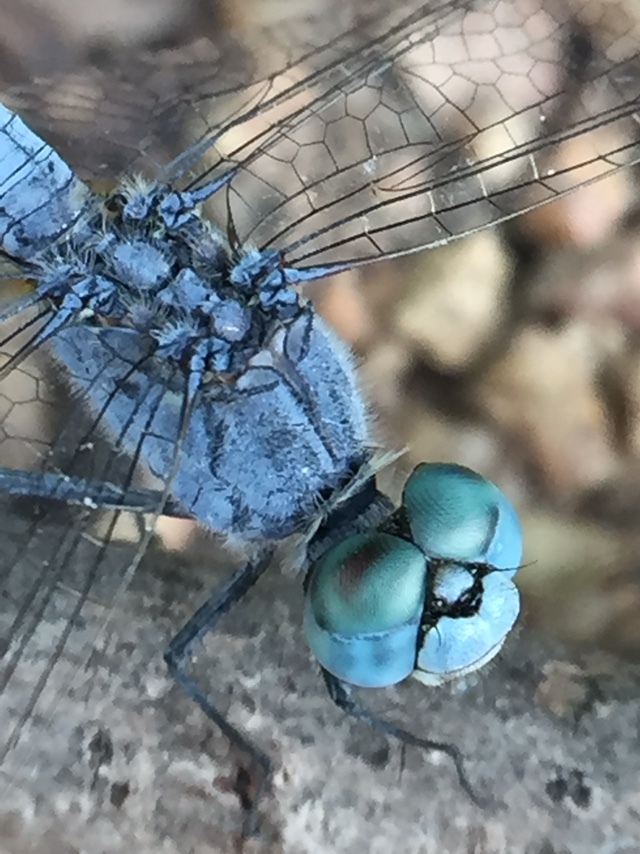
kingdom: Animalia
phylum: Arthropoda
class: Insecta
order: Odonata
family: Libellulidae
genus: Diplacodes
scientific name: Diplacodes trivialis
